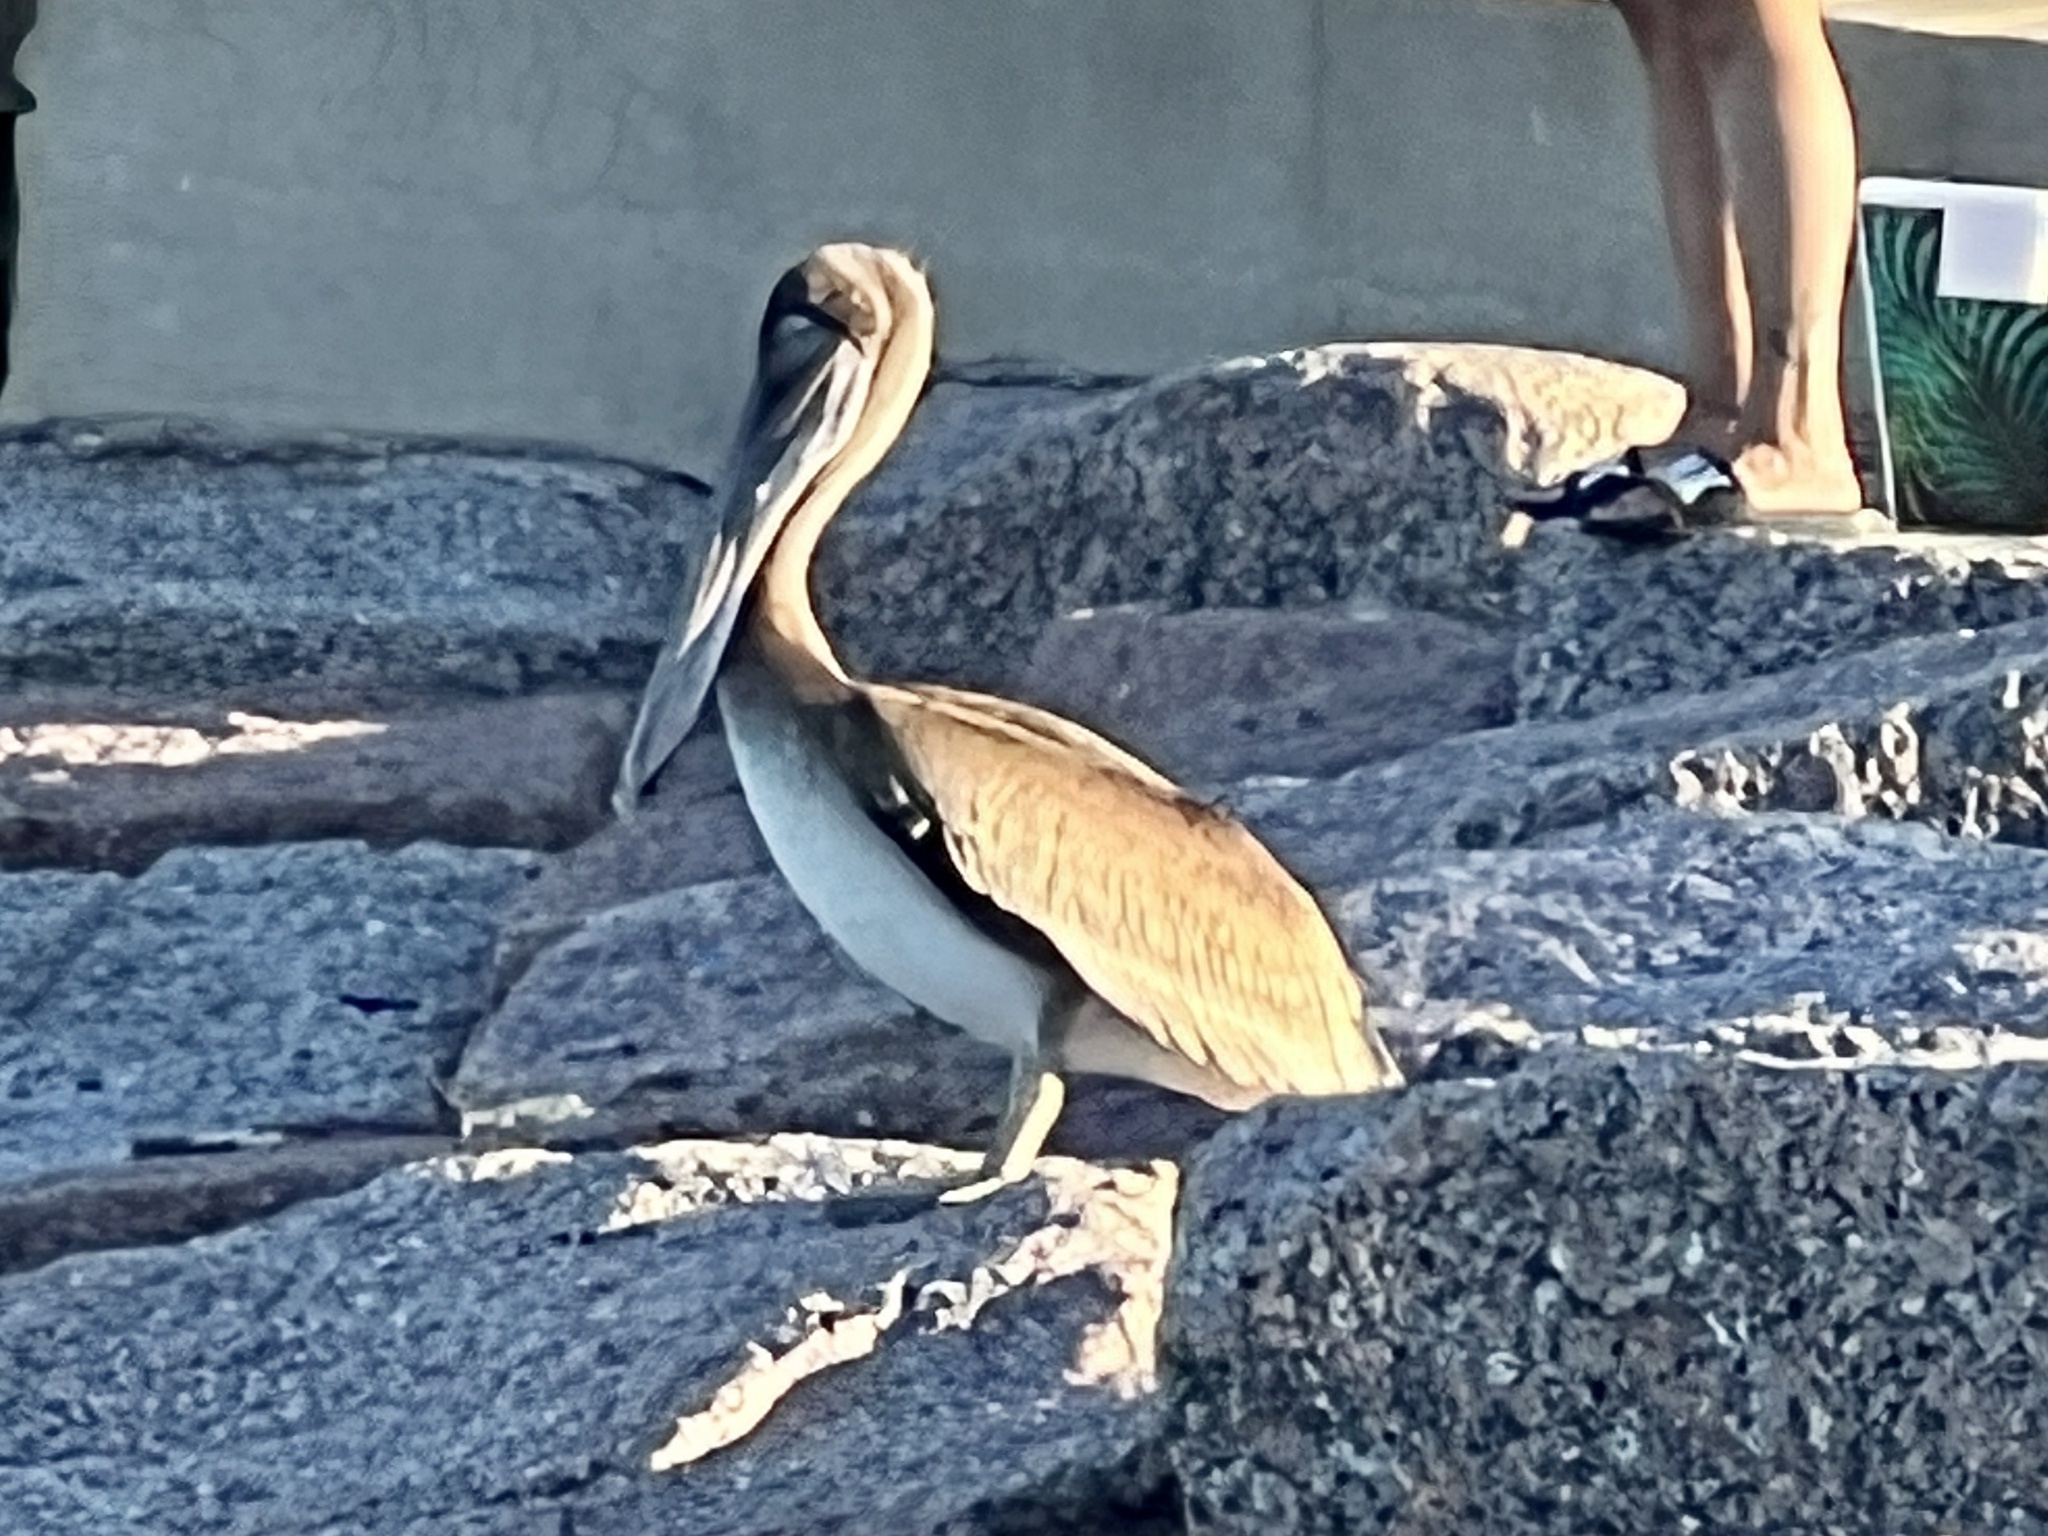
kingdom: Animalia
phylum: Chordata
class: Aves
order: Pelecaniformes
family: Pelecanidae
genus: Pelecanus
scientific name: Pelecanus occidentalis
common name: Brown pelican
